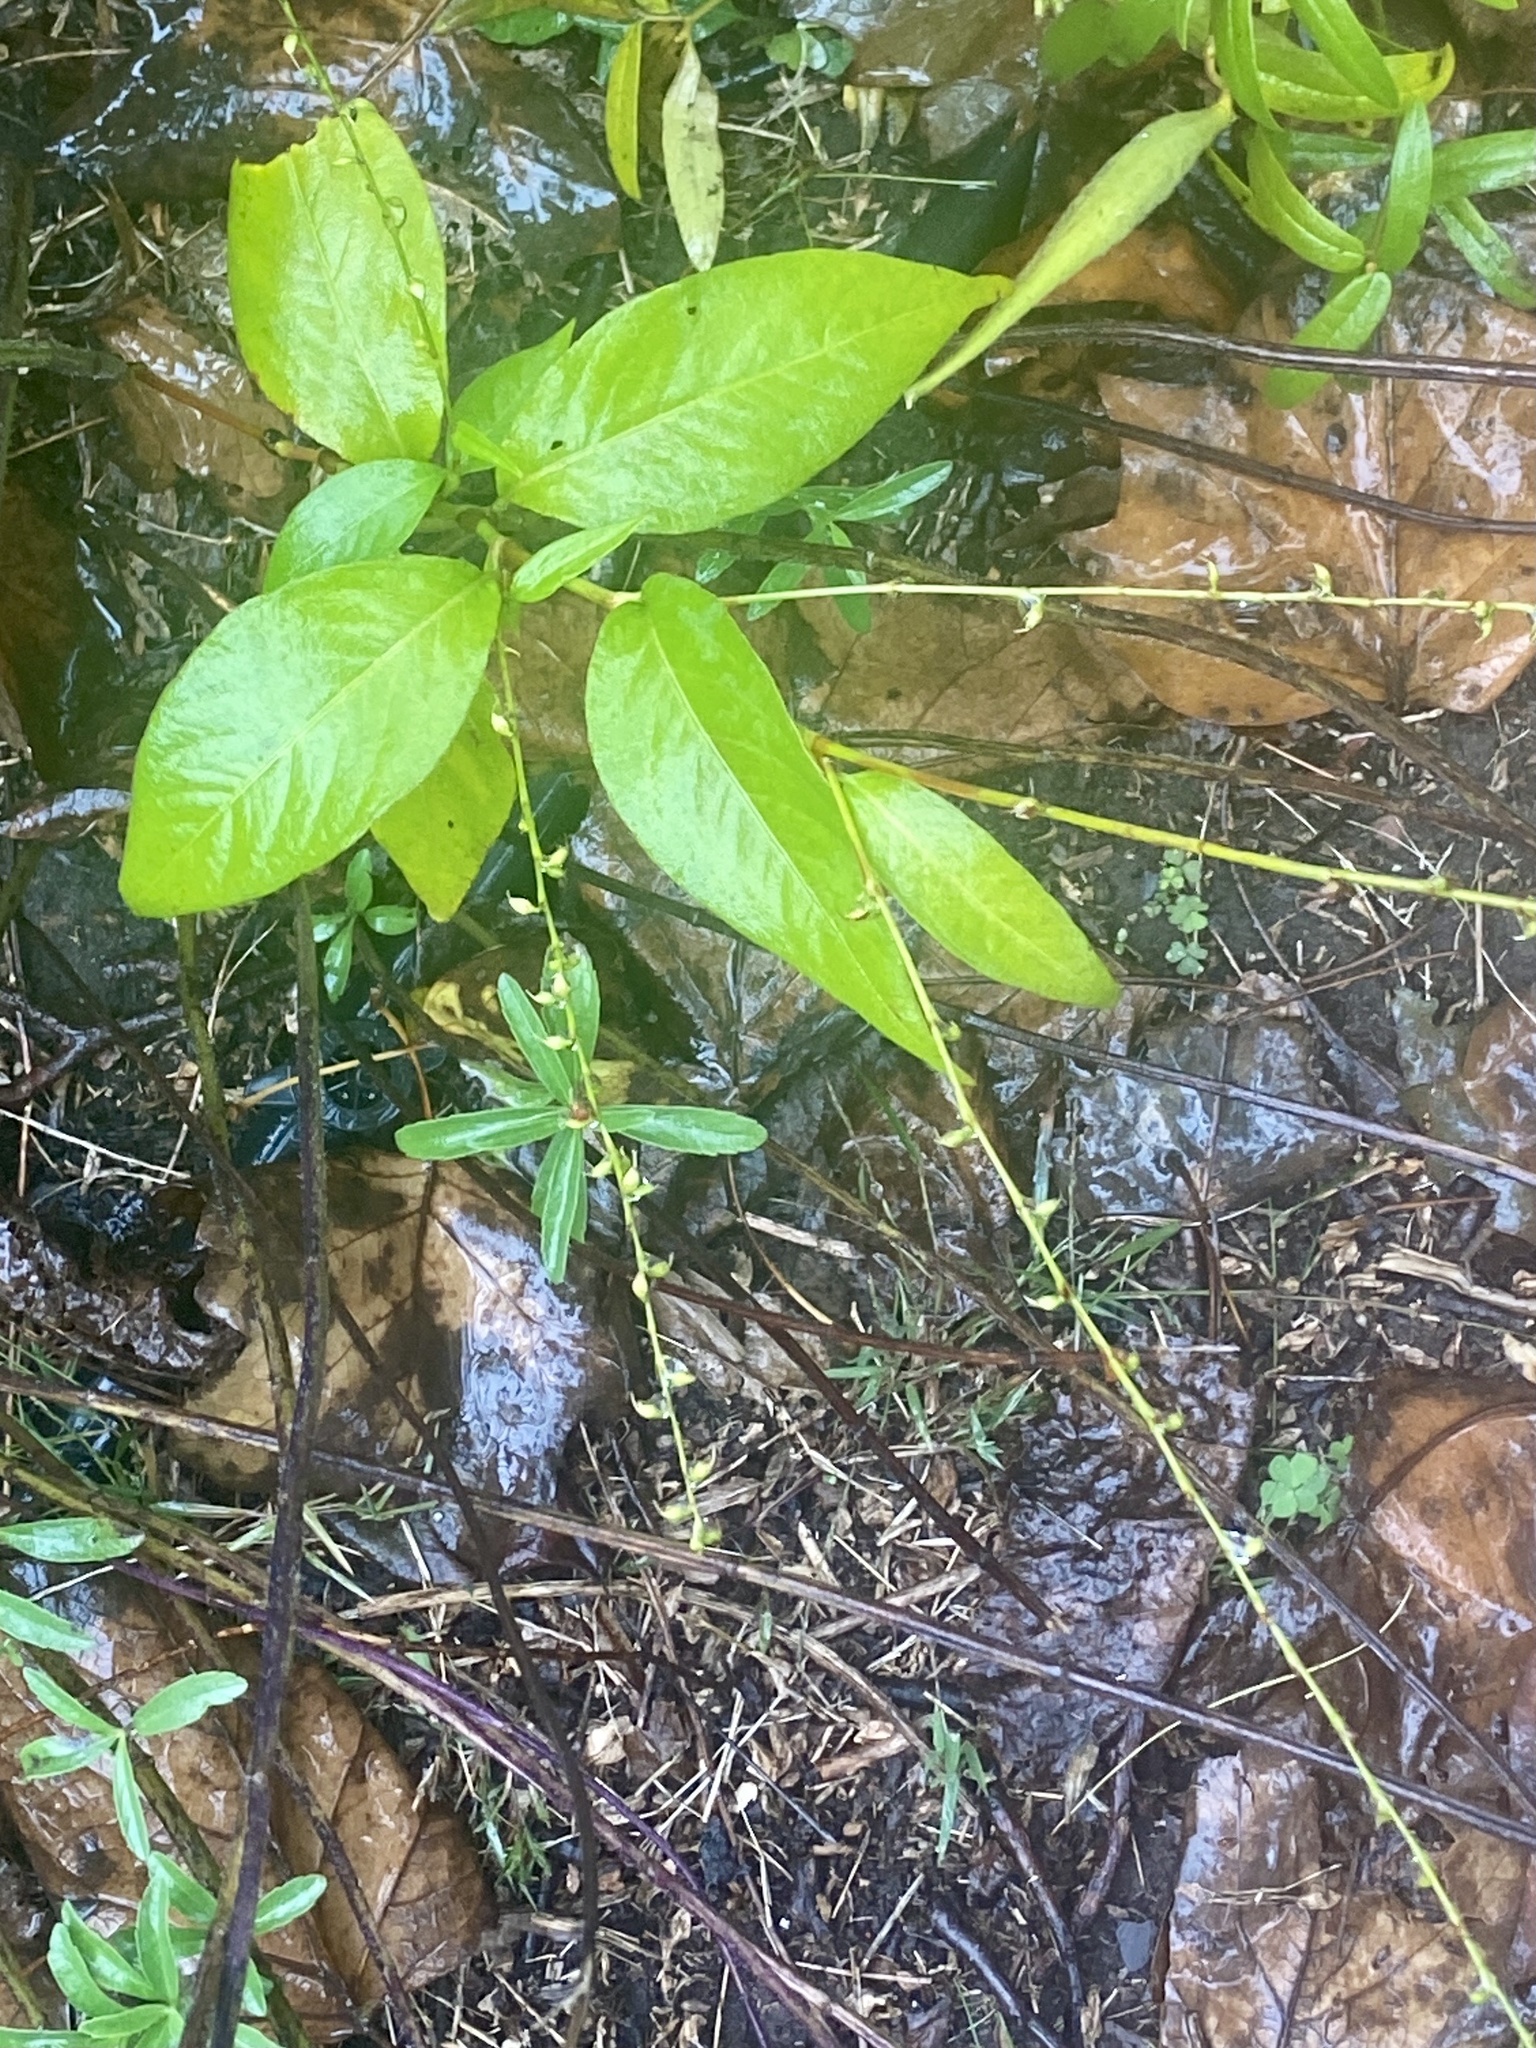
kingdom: Plantae
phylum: Tracheophyta
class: Magnoliopsida
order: Caryophyllales
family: Polygonaceae
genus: Persicaria
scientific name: Persicaria virginiana
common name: Jumpseed
